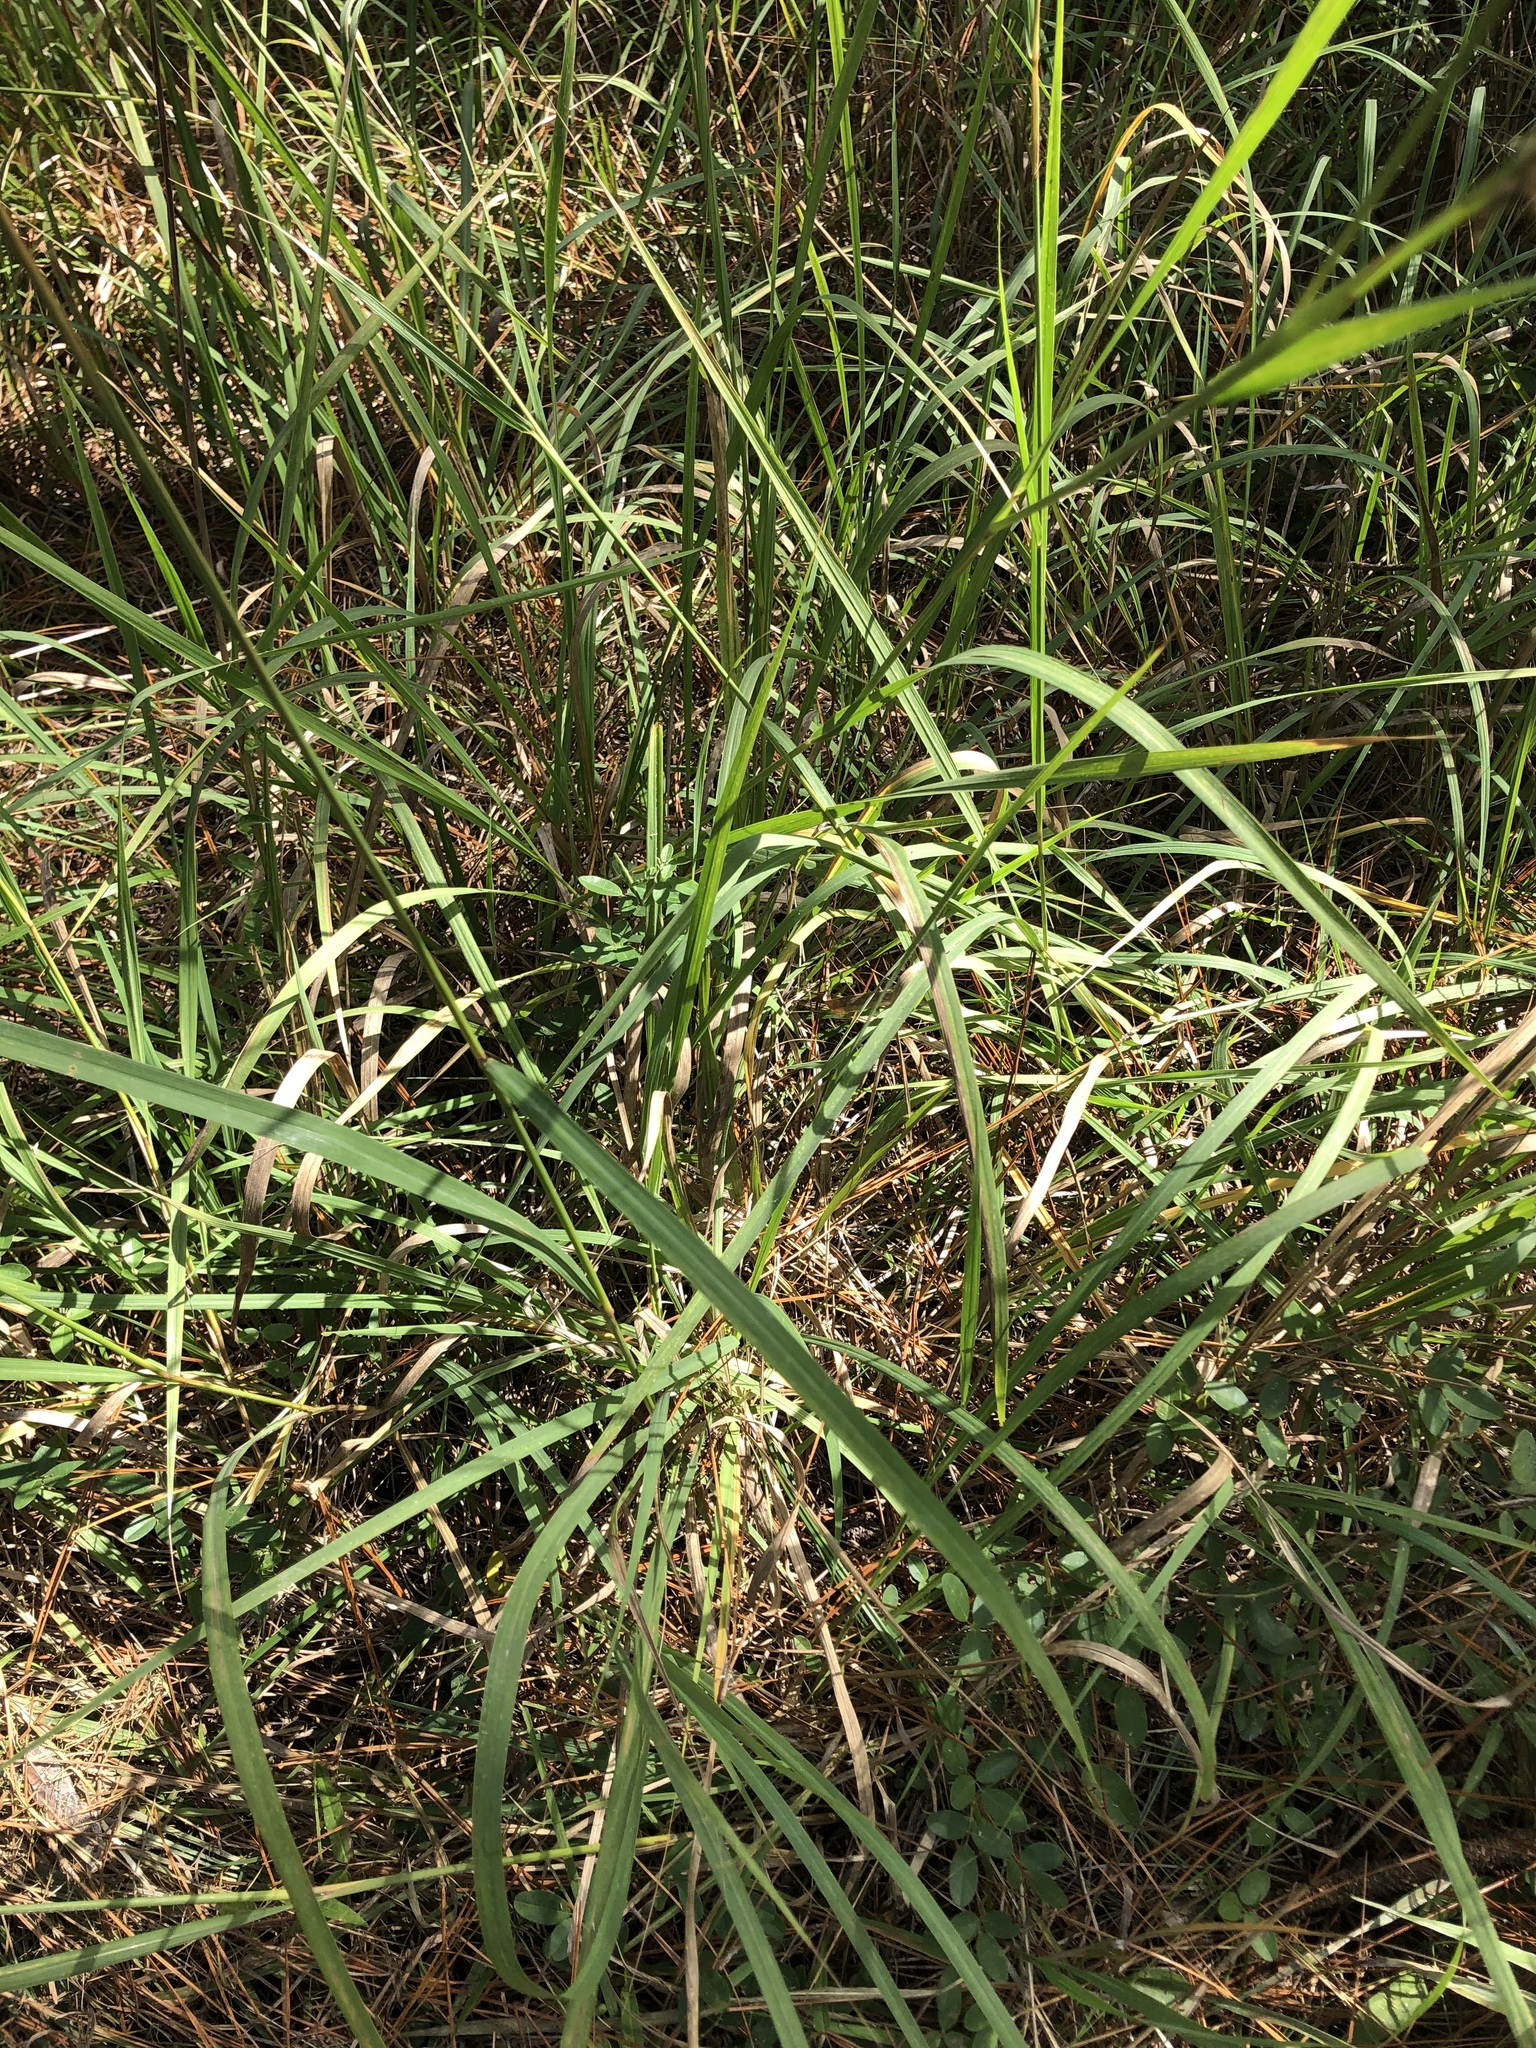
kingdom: Plantae
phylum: Tracheophyta
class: Liliopsida
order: Poales
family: Poaceae
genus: Sorghastrum
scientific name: Sorghastrum nutans
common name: Indian grass
